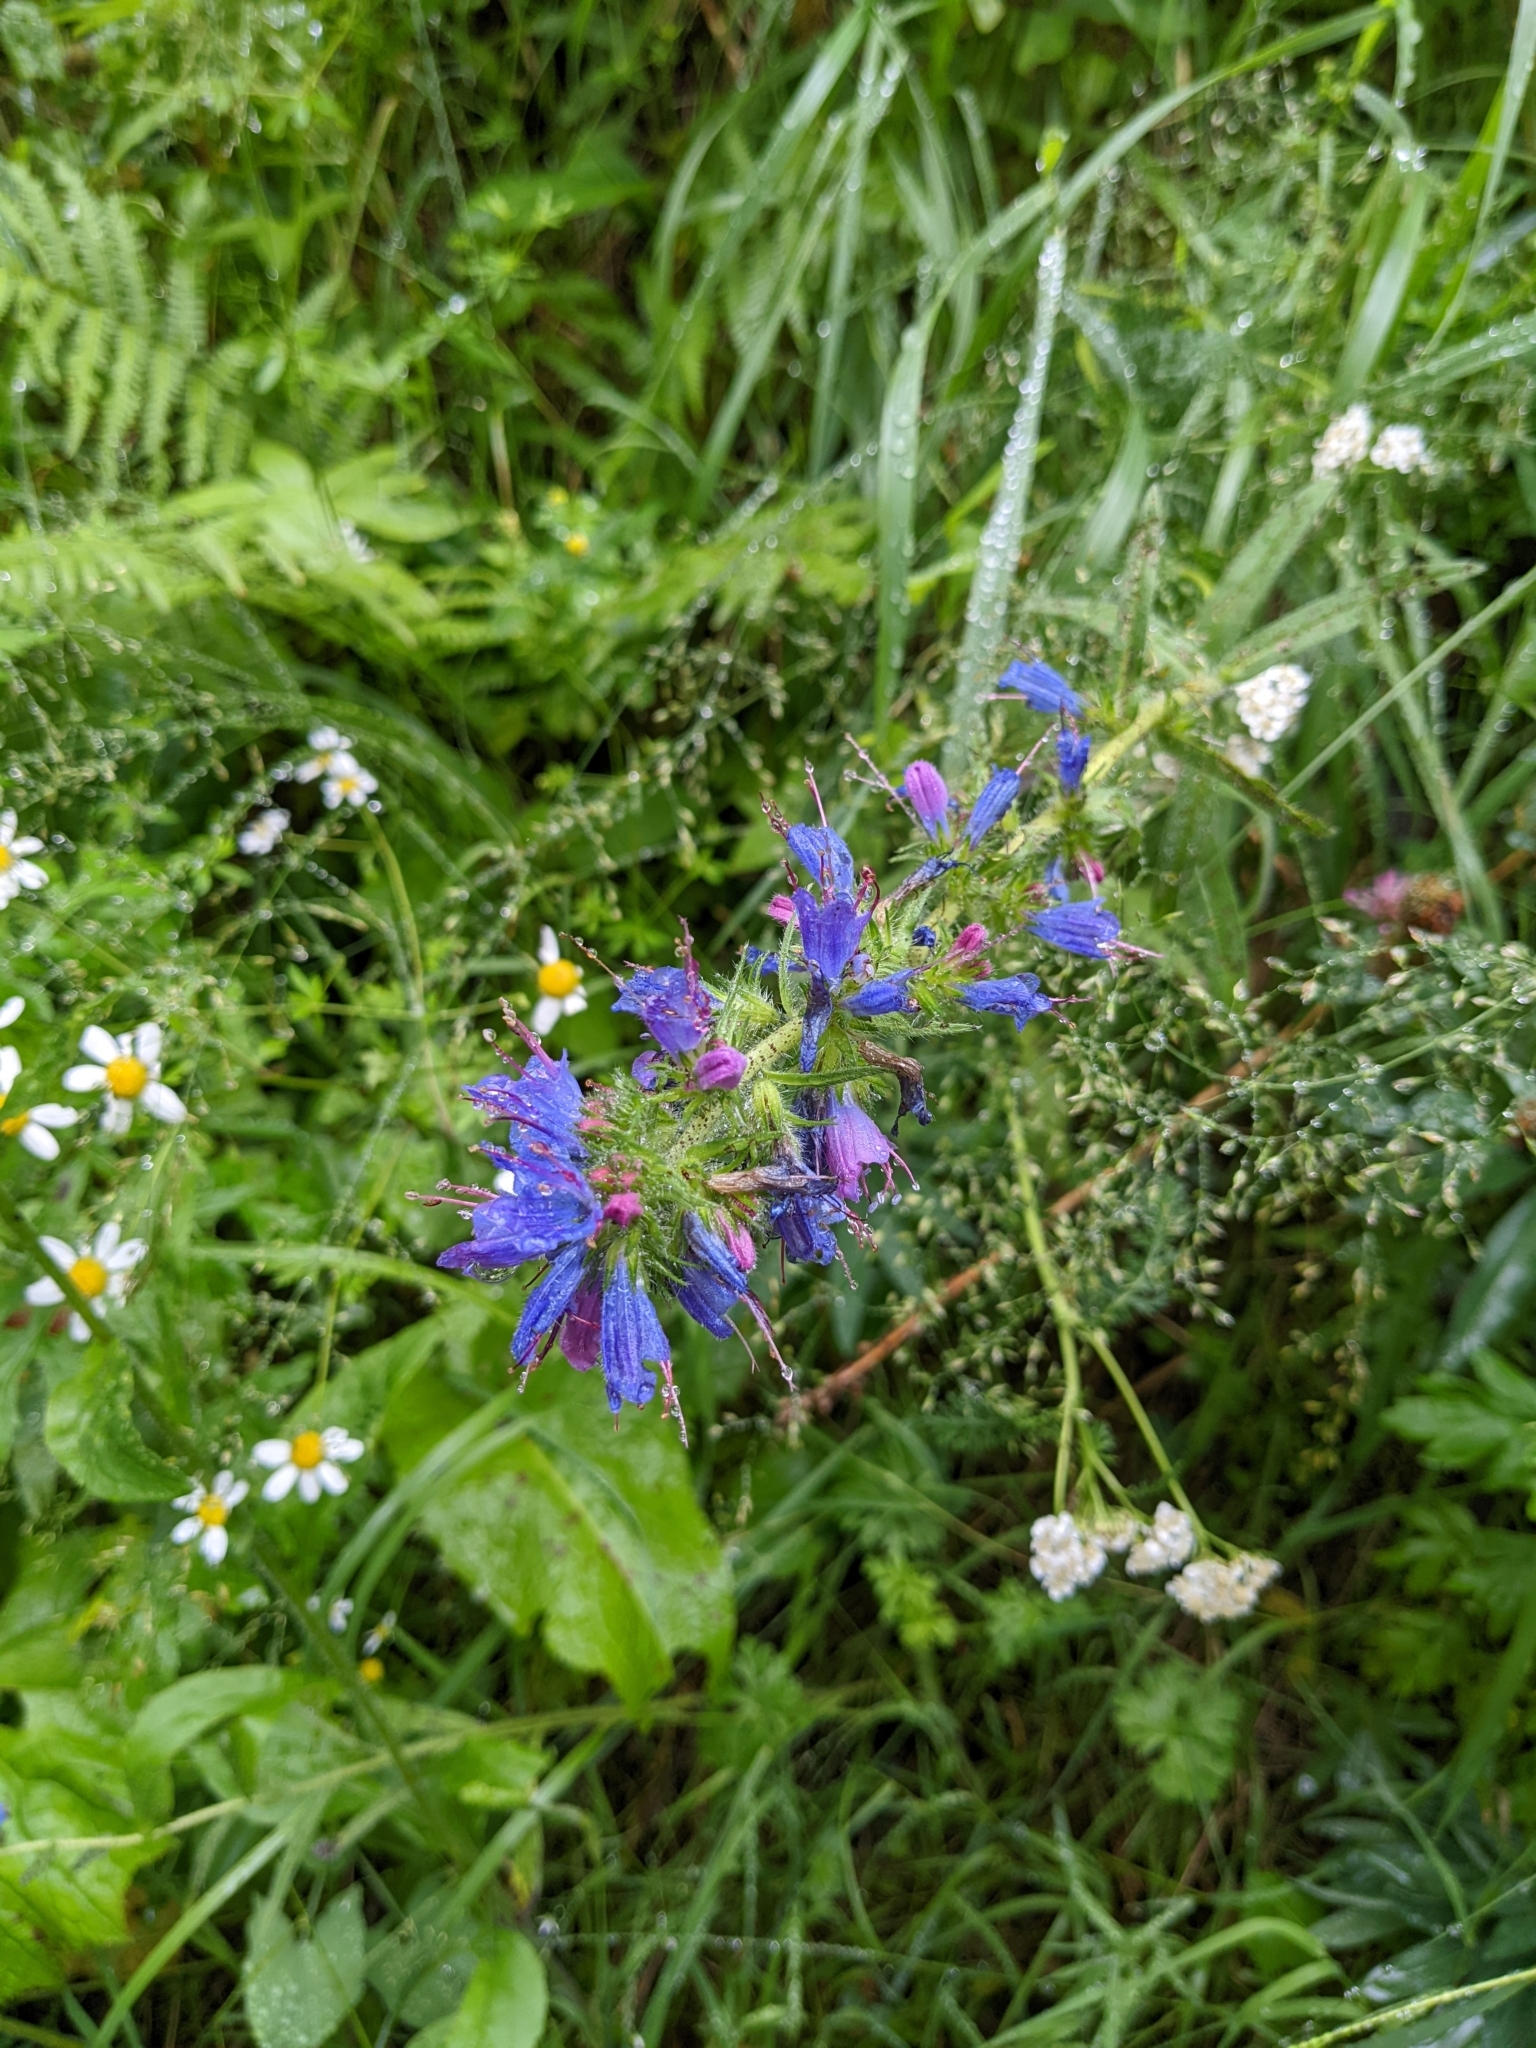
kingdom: Plantae
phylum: Tracheophyta
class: Magnoliopsida
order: Boraginales
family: Boraginaceae
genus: Echium
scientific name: Echium vulgare
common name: Common viper's bugloss
